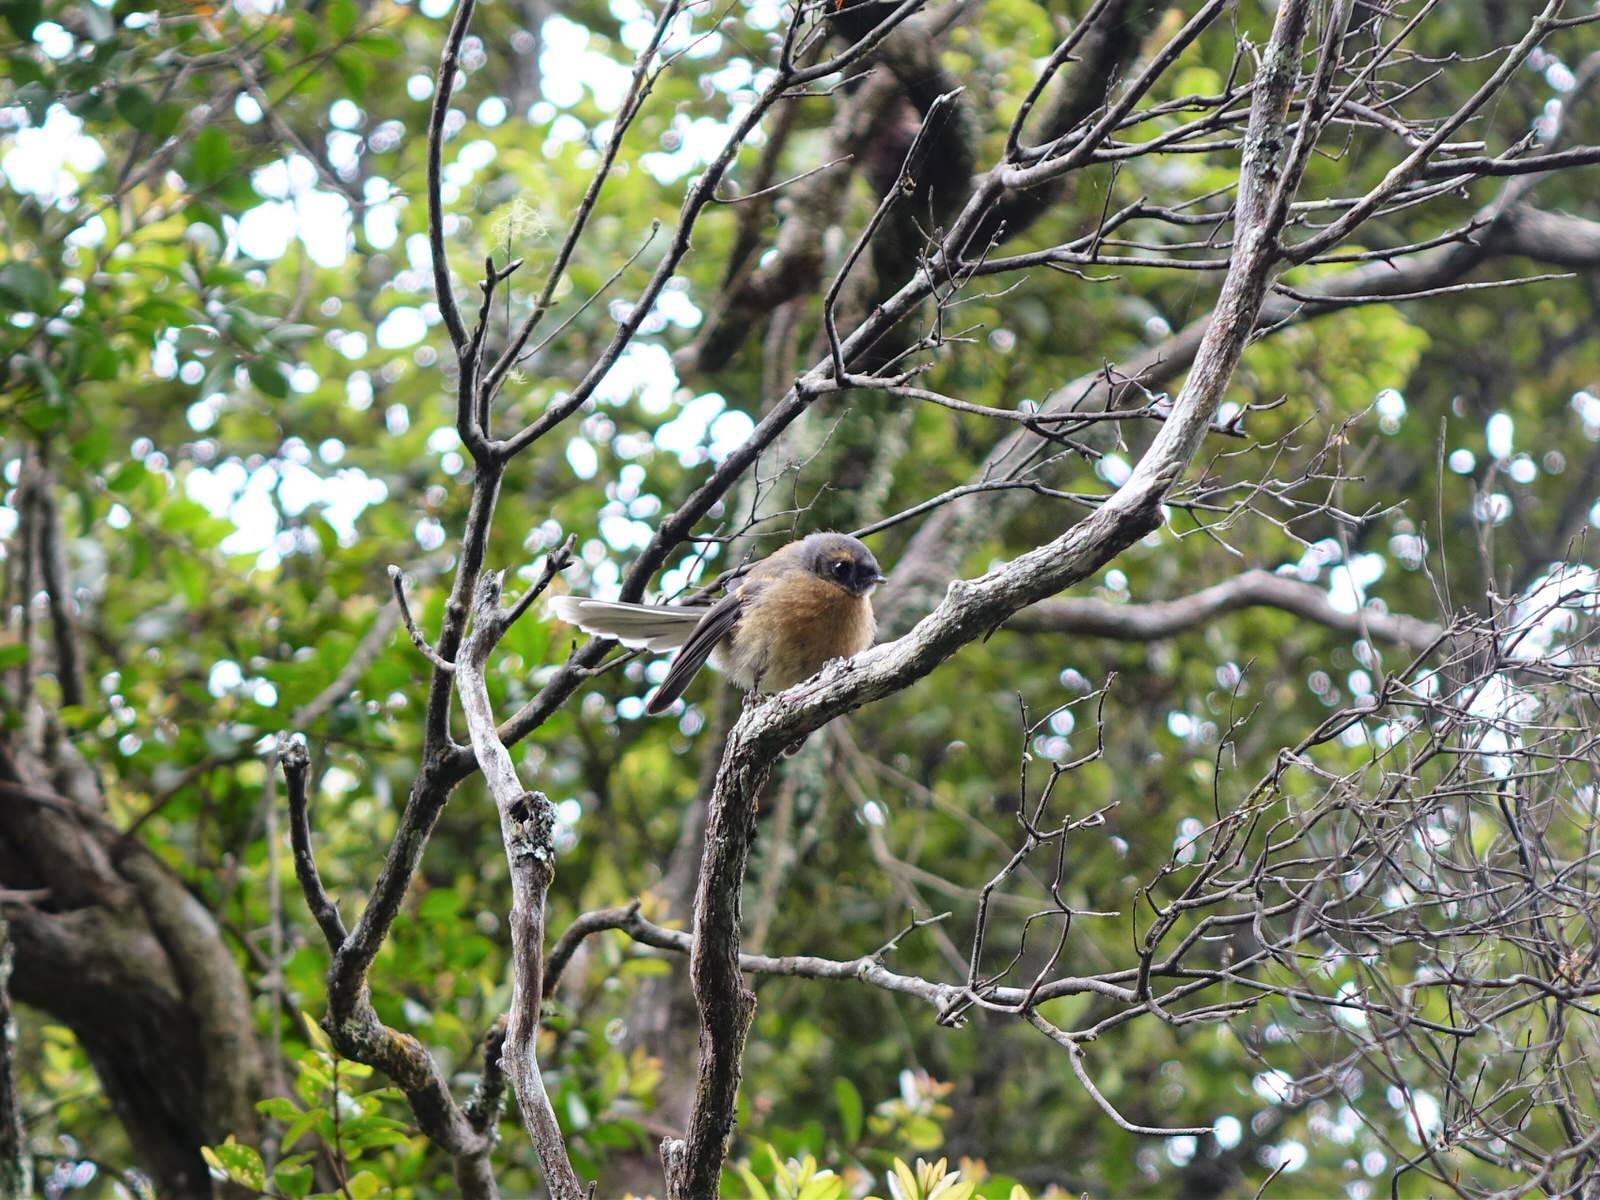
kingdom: Animalia
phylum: Chordata
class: Aves
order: Passeriformes
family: Rhipiduridae
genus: Rhipidura
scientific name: Rhipidura fuliginosa
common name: New zealand fantail
